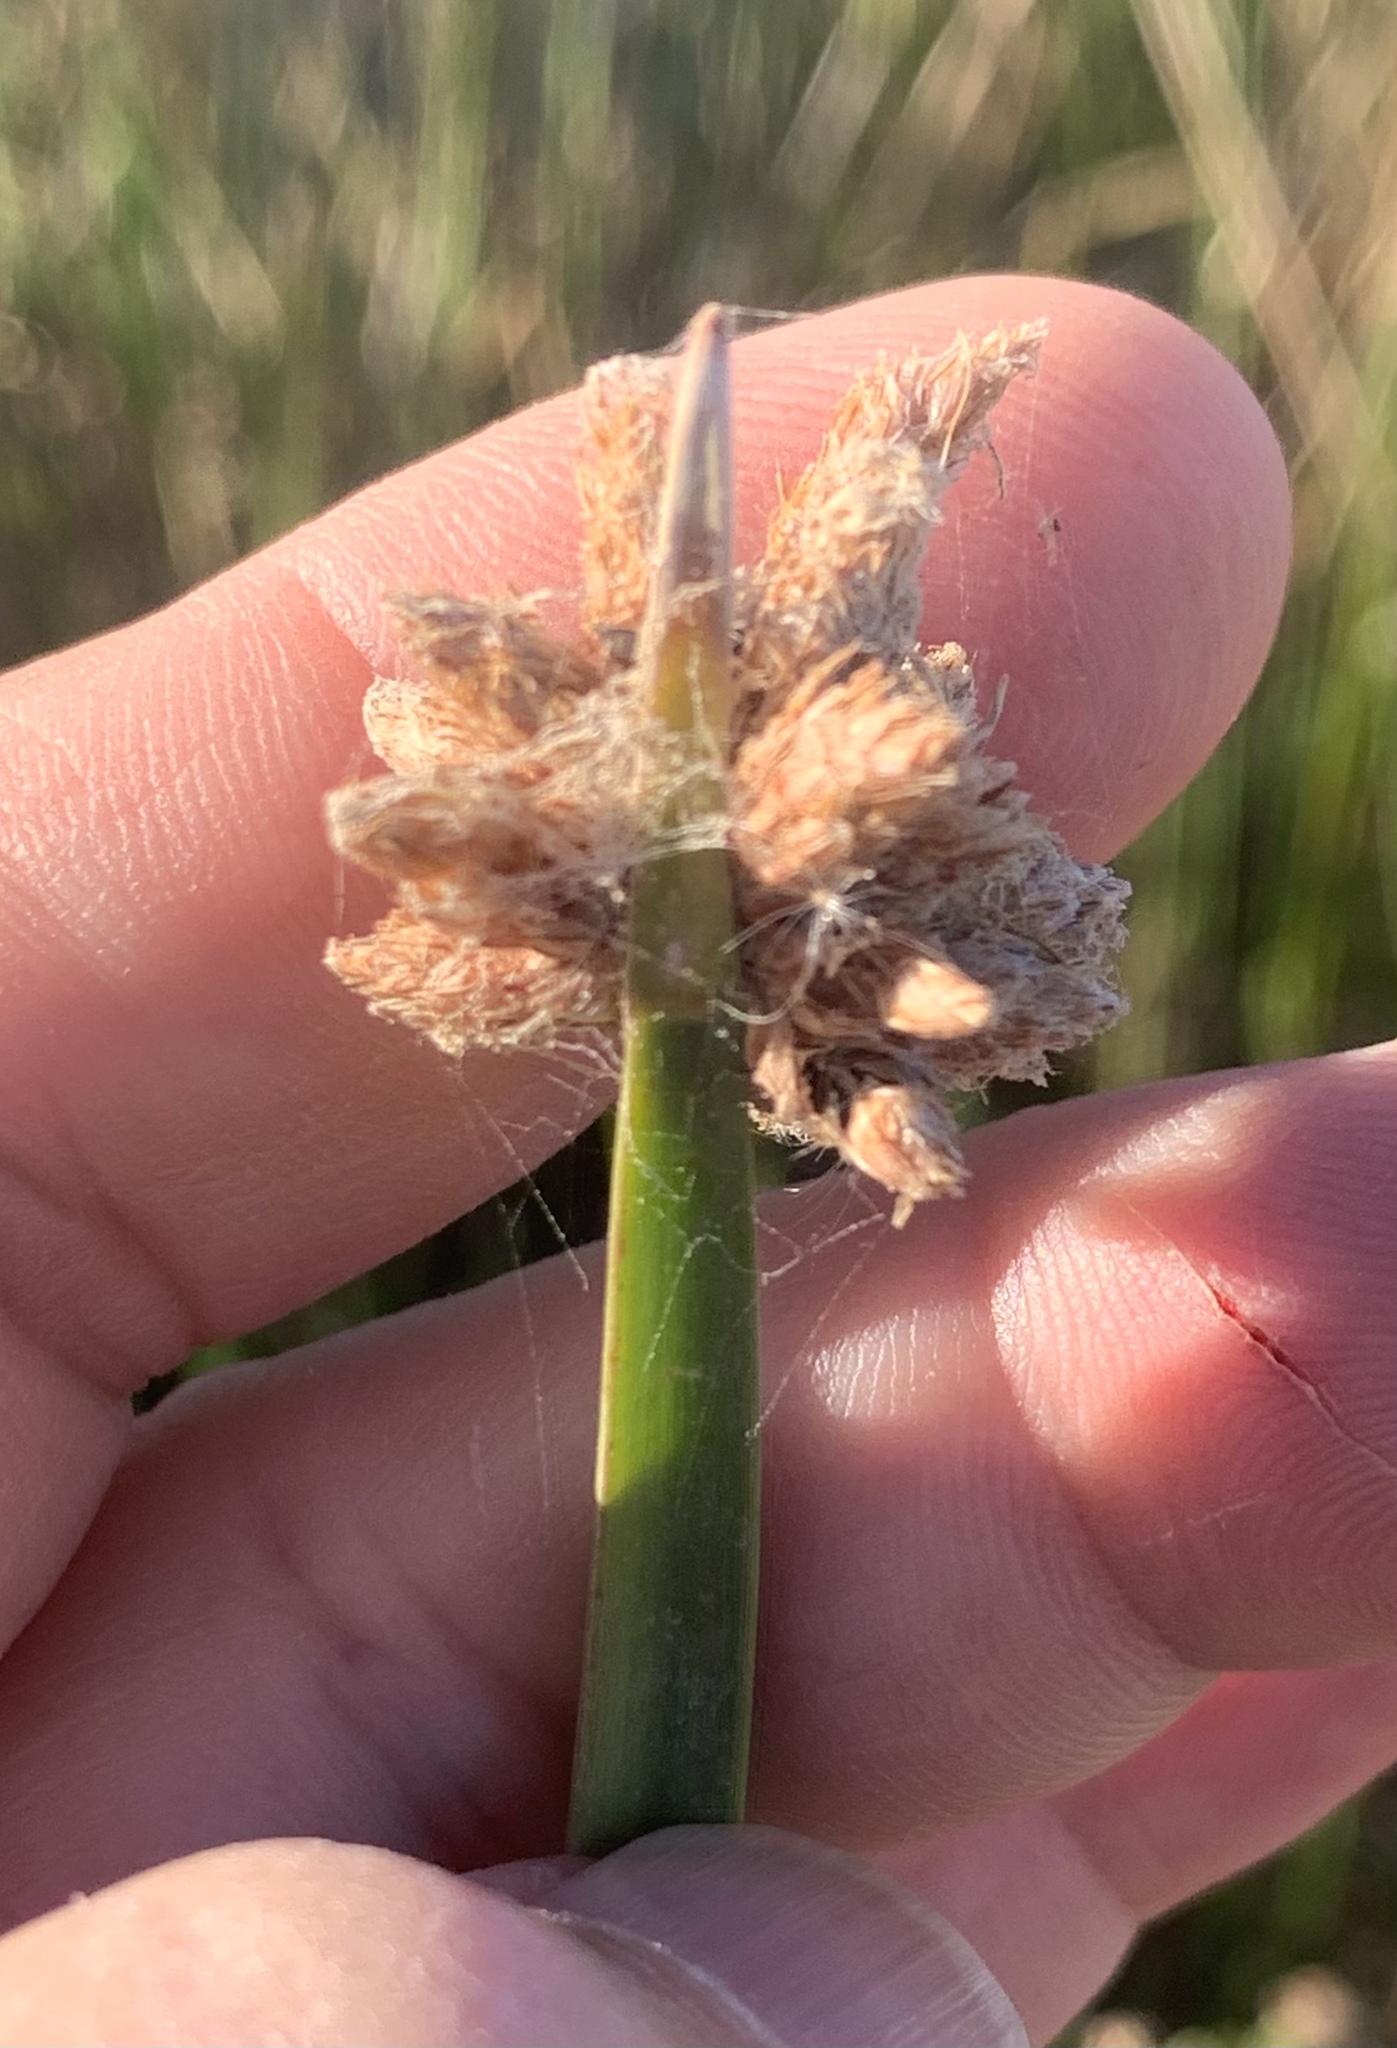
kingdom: Plantae
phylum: Tracheophyta
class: Liliopsida
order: Poales
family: Cyperaceae
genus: Schoenoplectus
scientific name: Schoenoplectus americanus
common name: American three-square bulrush
